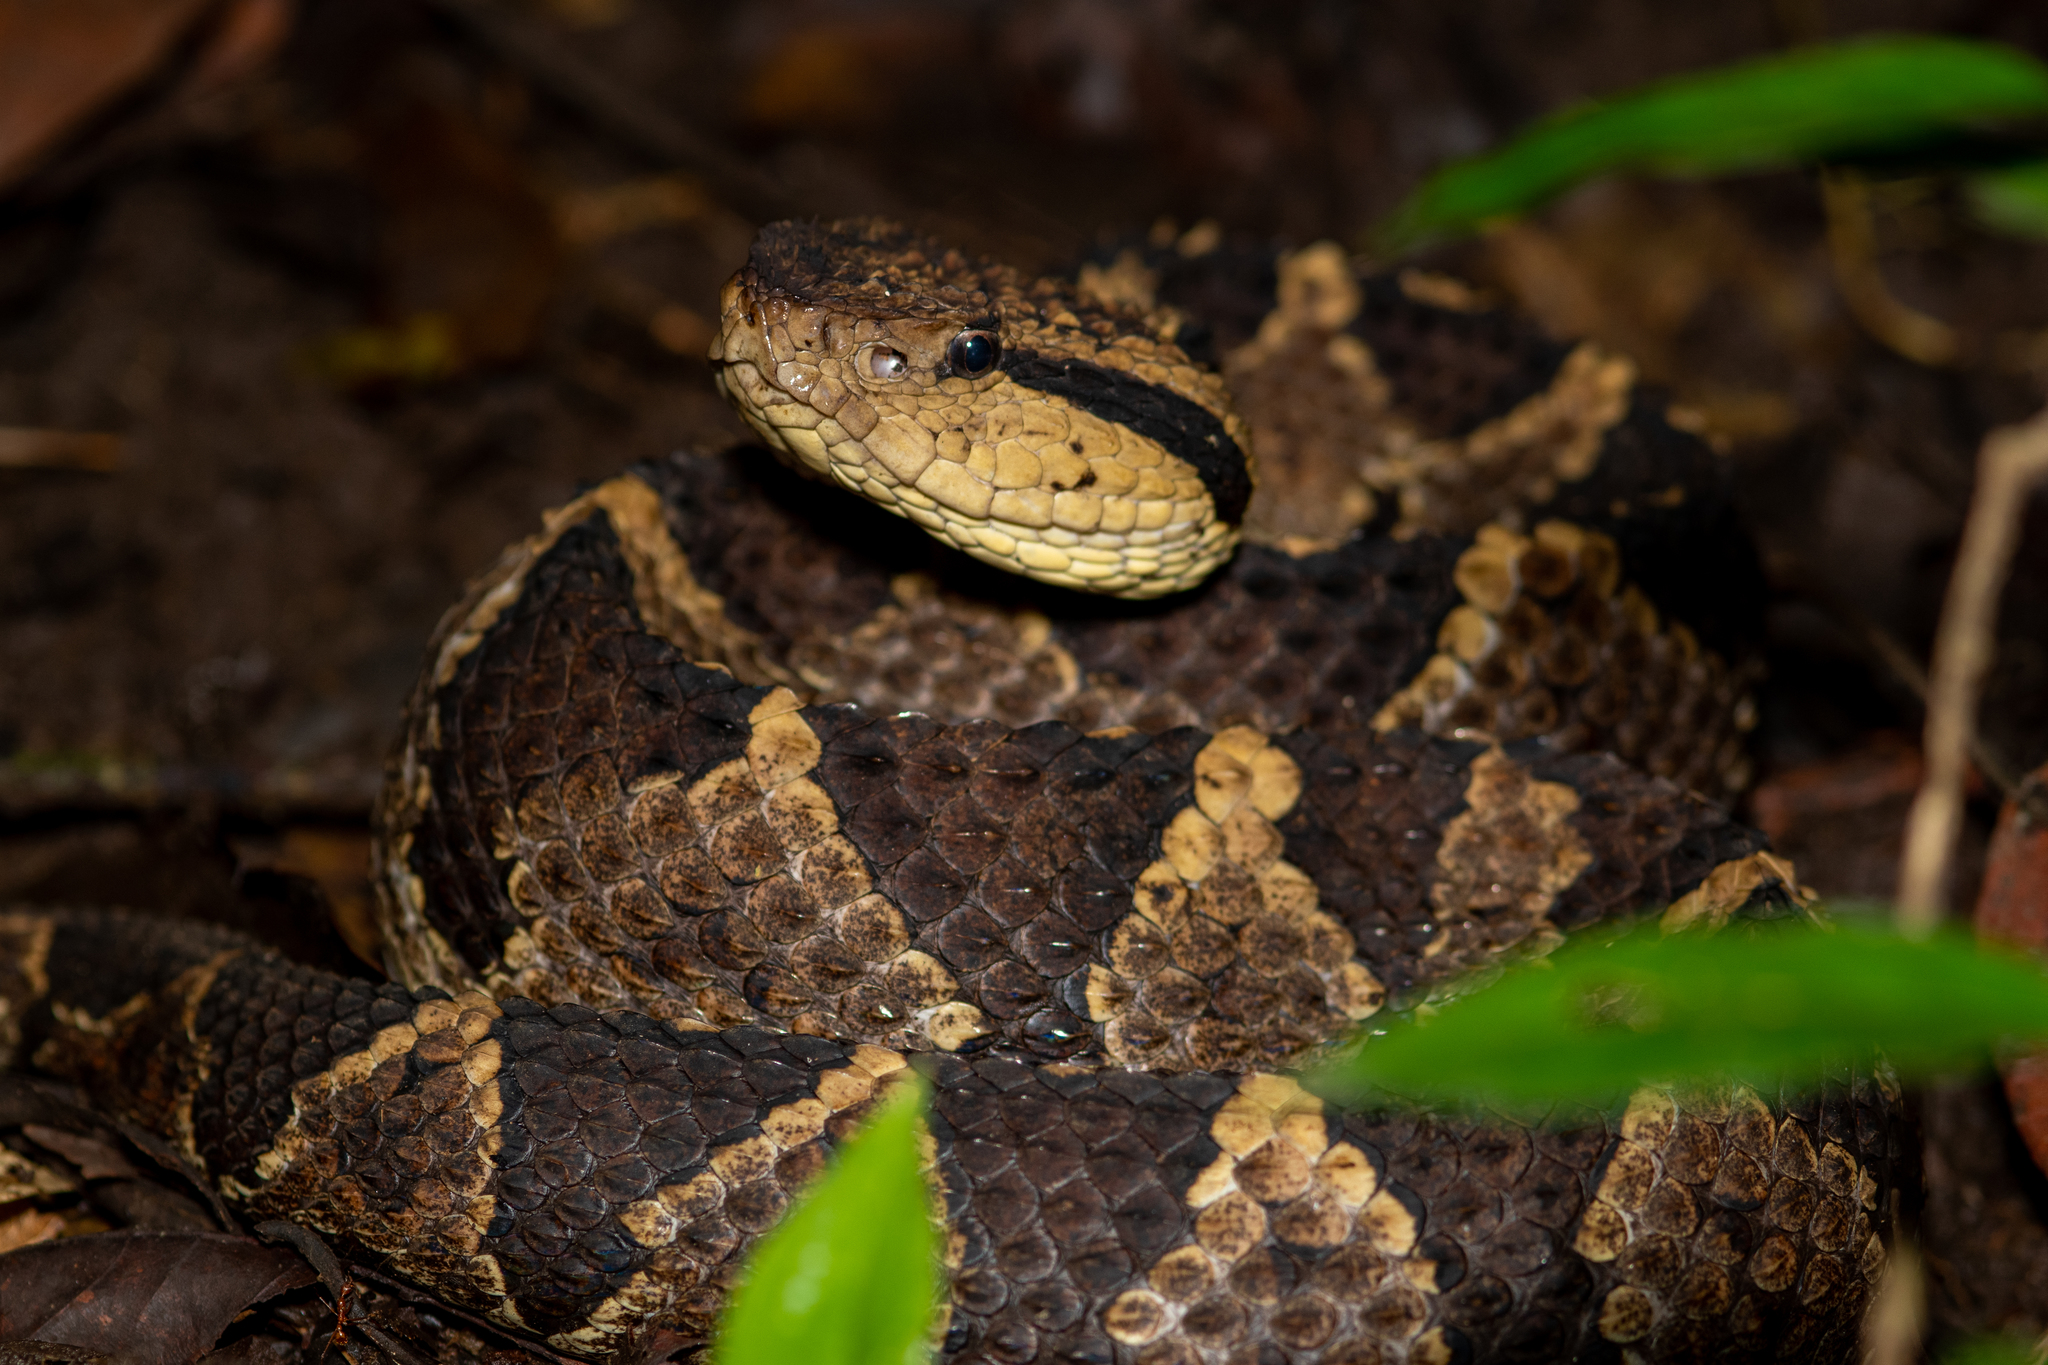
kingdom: Animalia
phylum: Chordata
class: Squamata
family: Viperidae
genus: Metlapilcoatlus
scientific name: Metlapilcoatlus mexicanus
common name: Central american jumping pit viper
